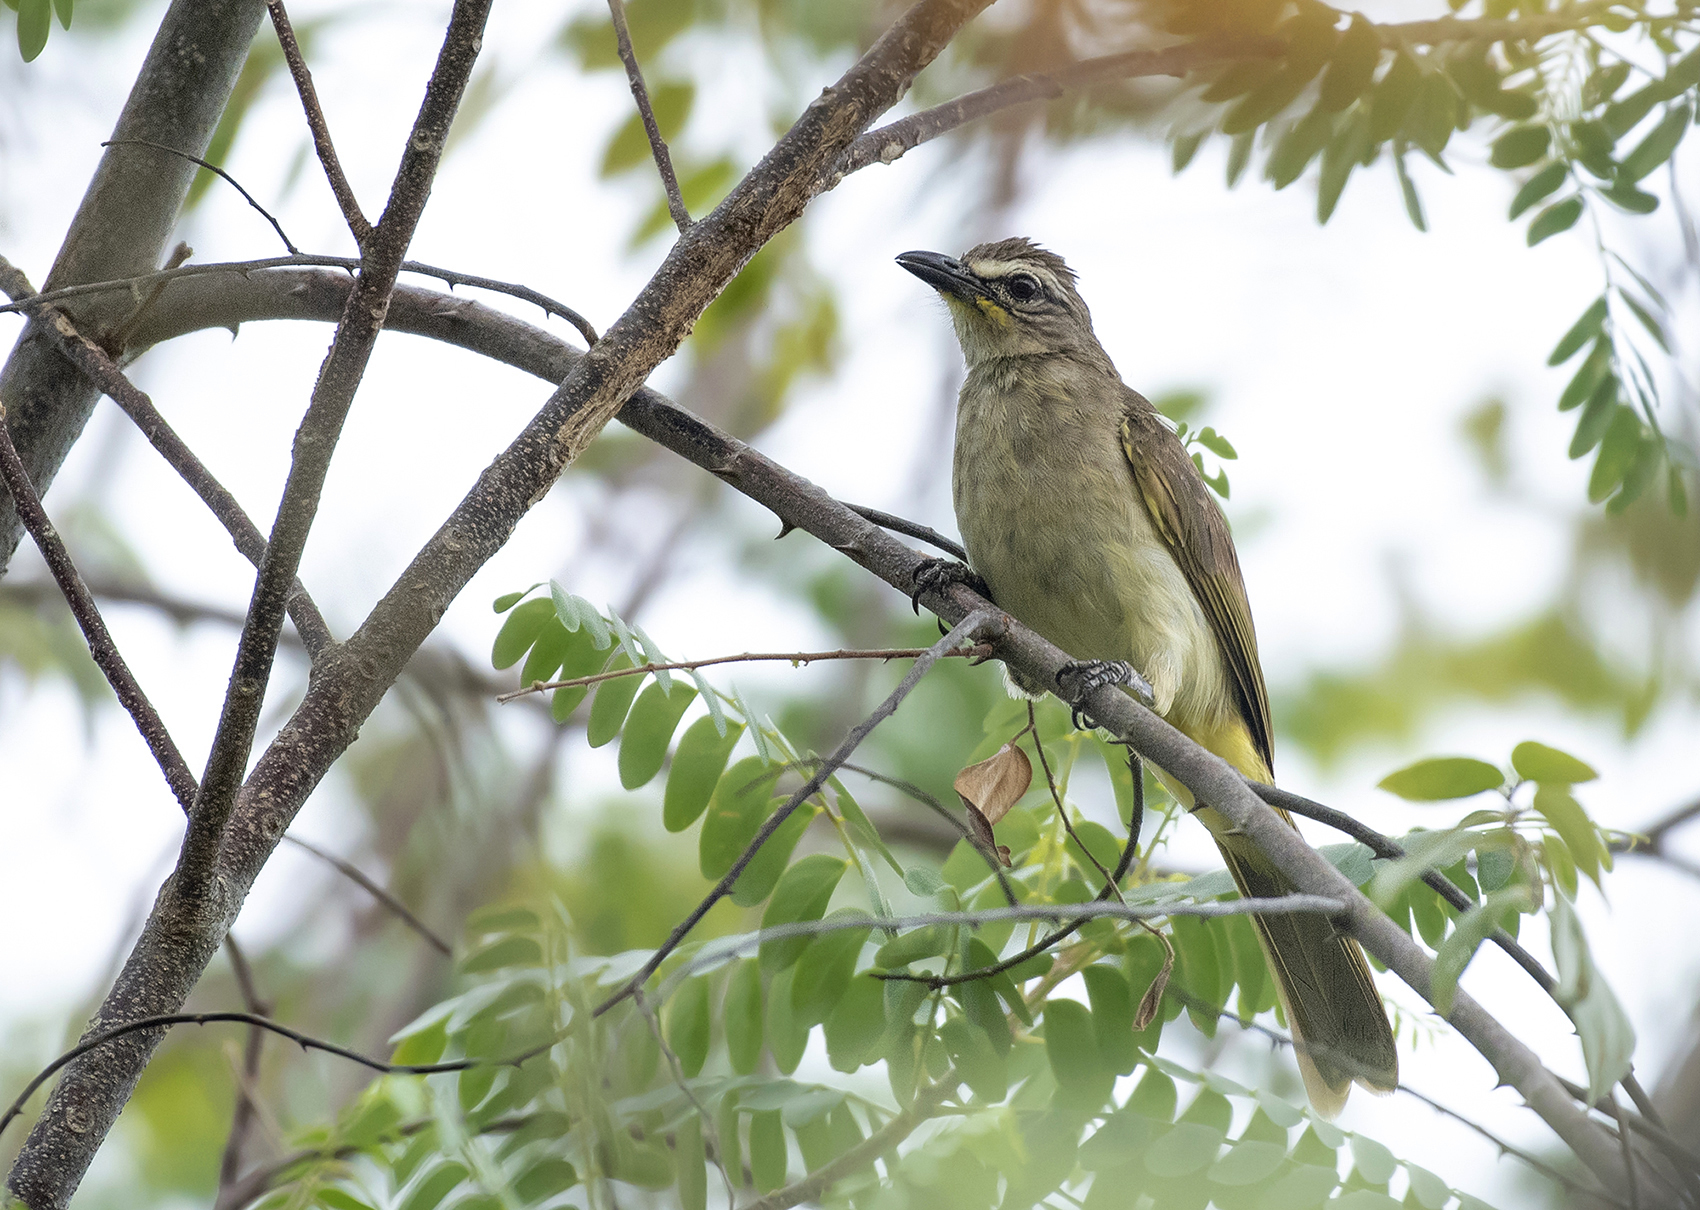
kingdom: Animalia
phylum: Chordata
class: Aves
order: Passeriformes
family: Pycnonotidae
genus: Pycnonotus
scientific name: Pycnonotus luteolus
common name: White-browed bulbul
